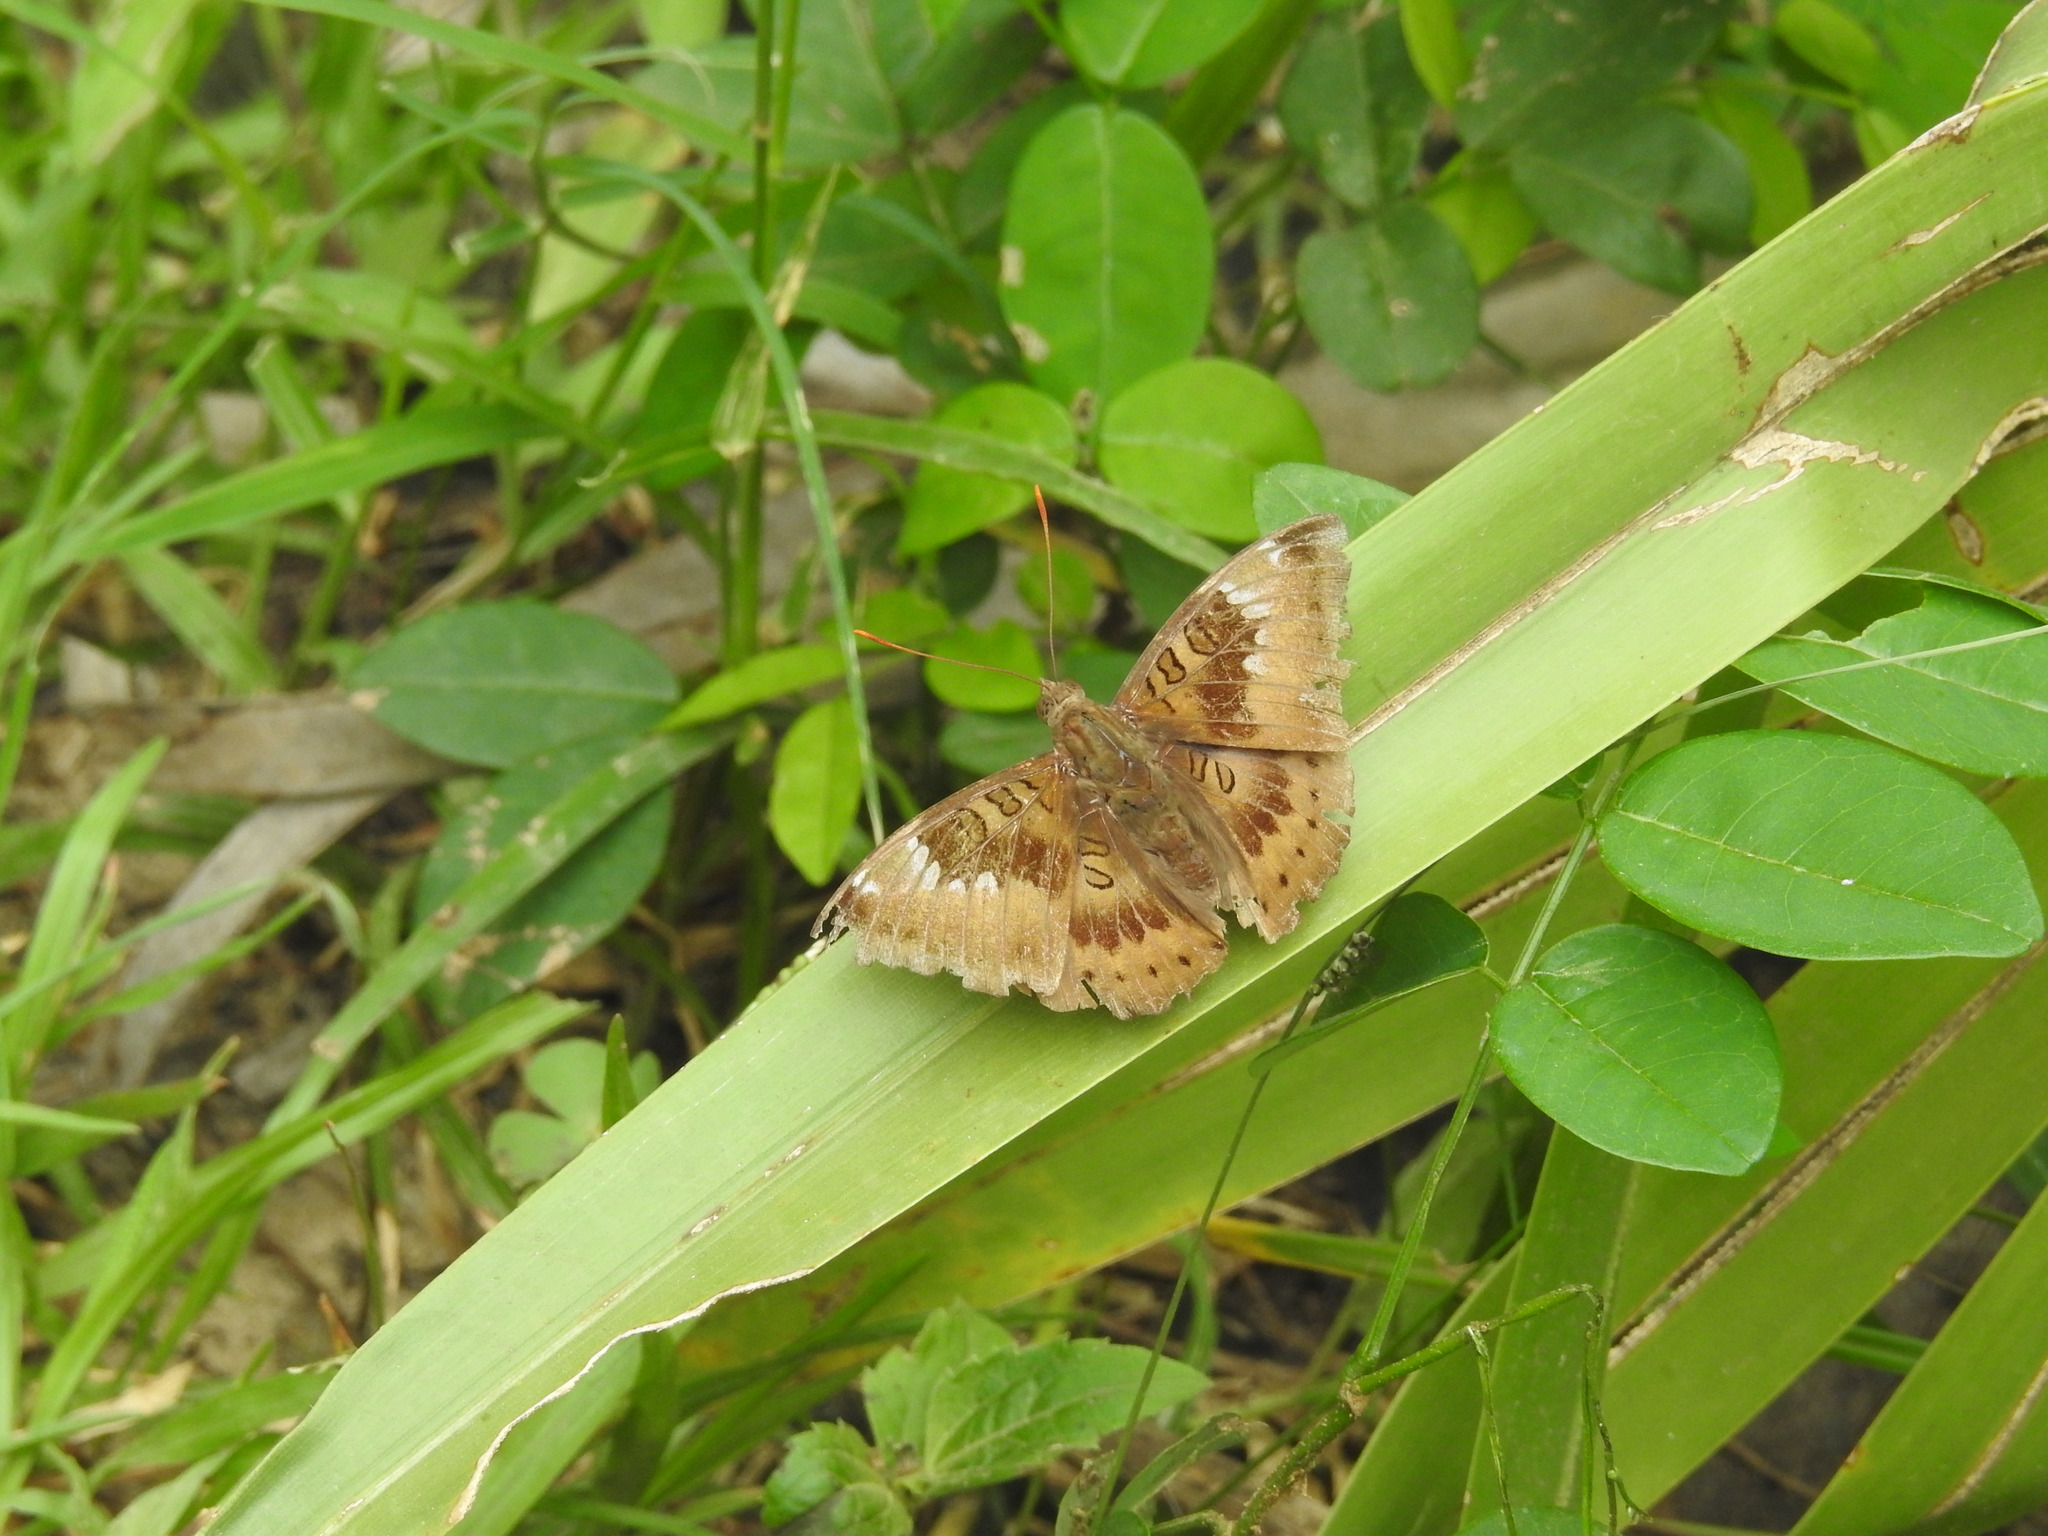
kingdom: Animalia
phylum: Arthropoda
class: Insecta
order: Lepidoptera
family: Nymphalidae
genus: Euthalia
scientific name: Euthalia aconthea
